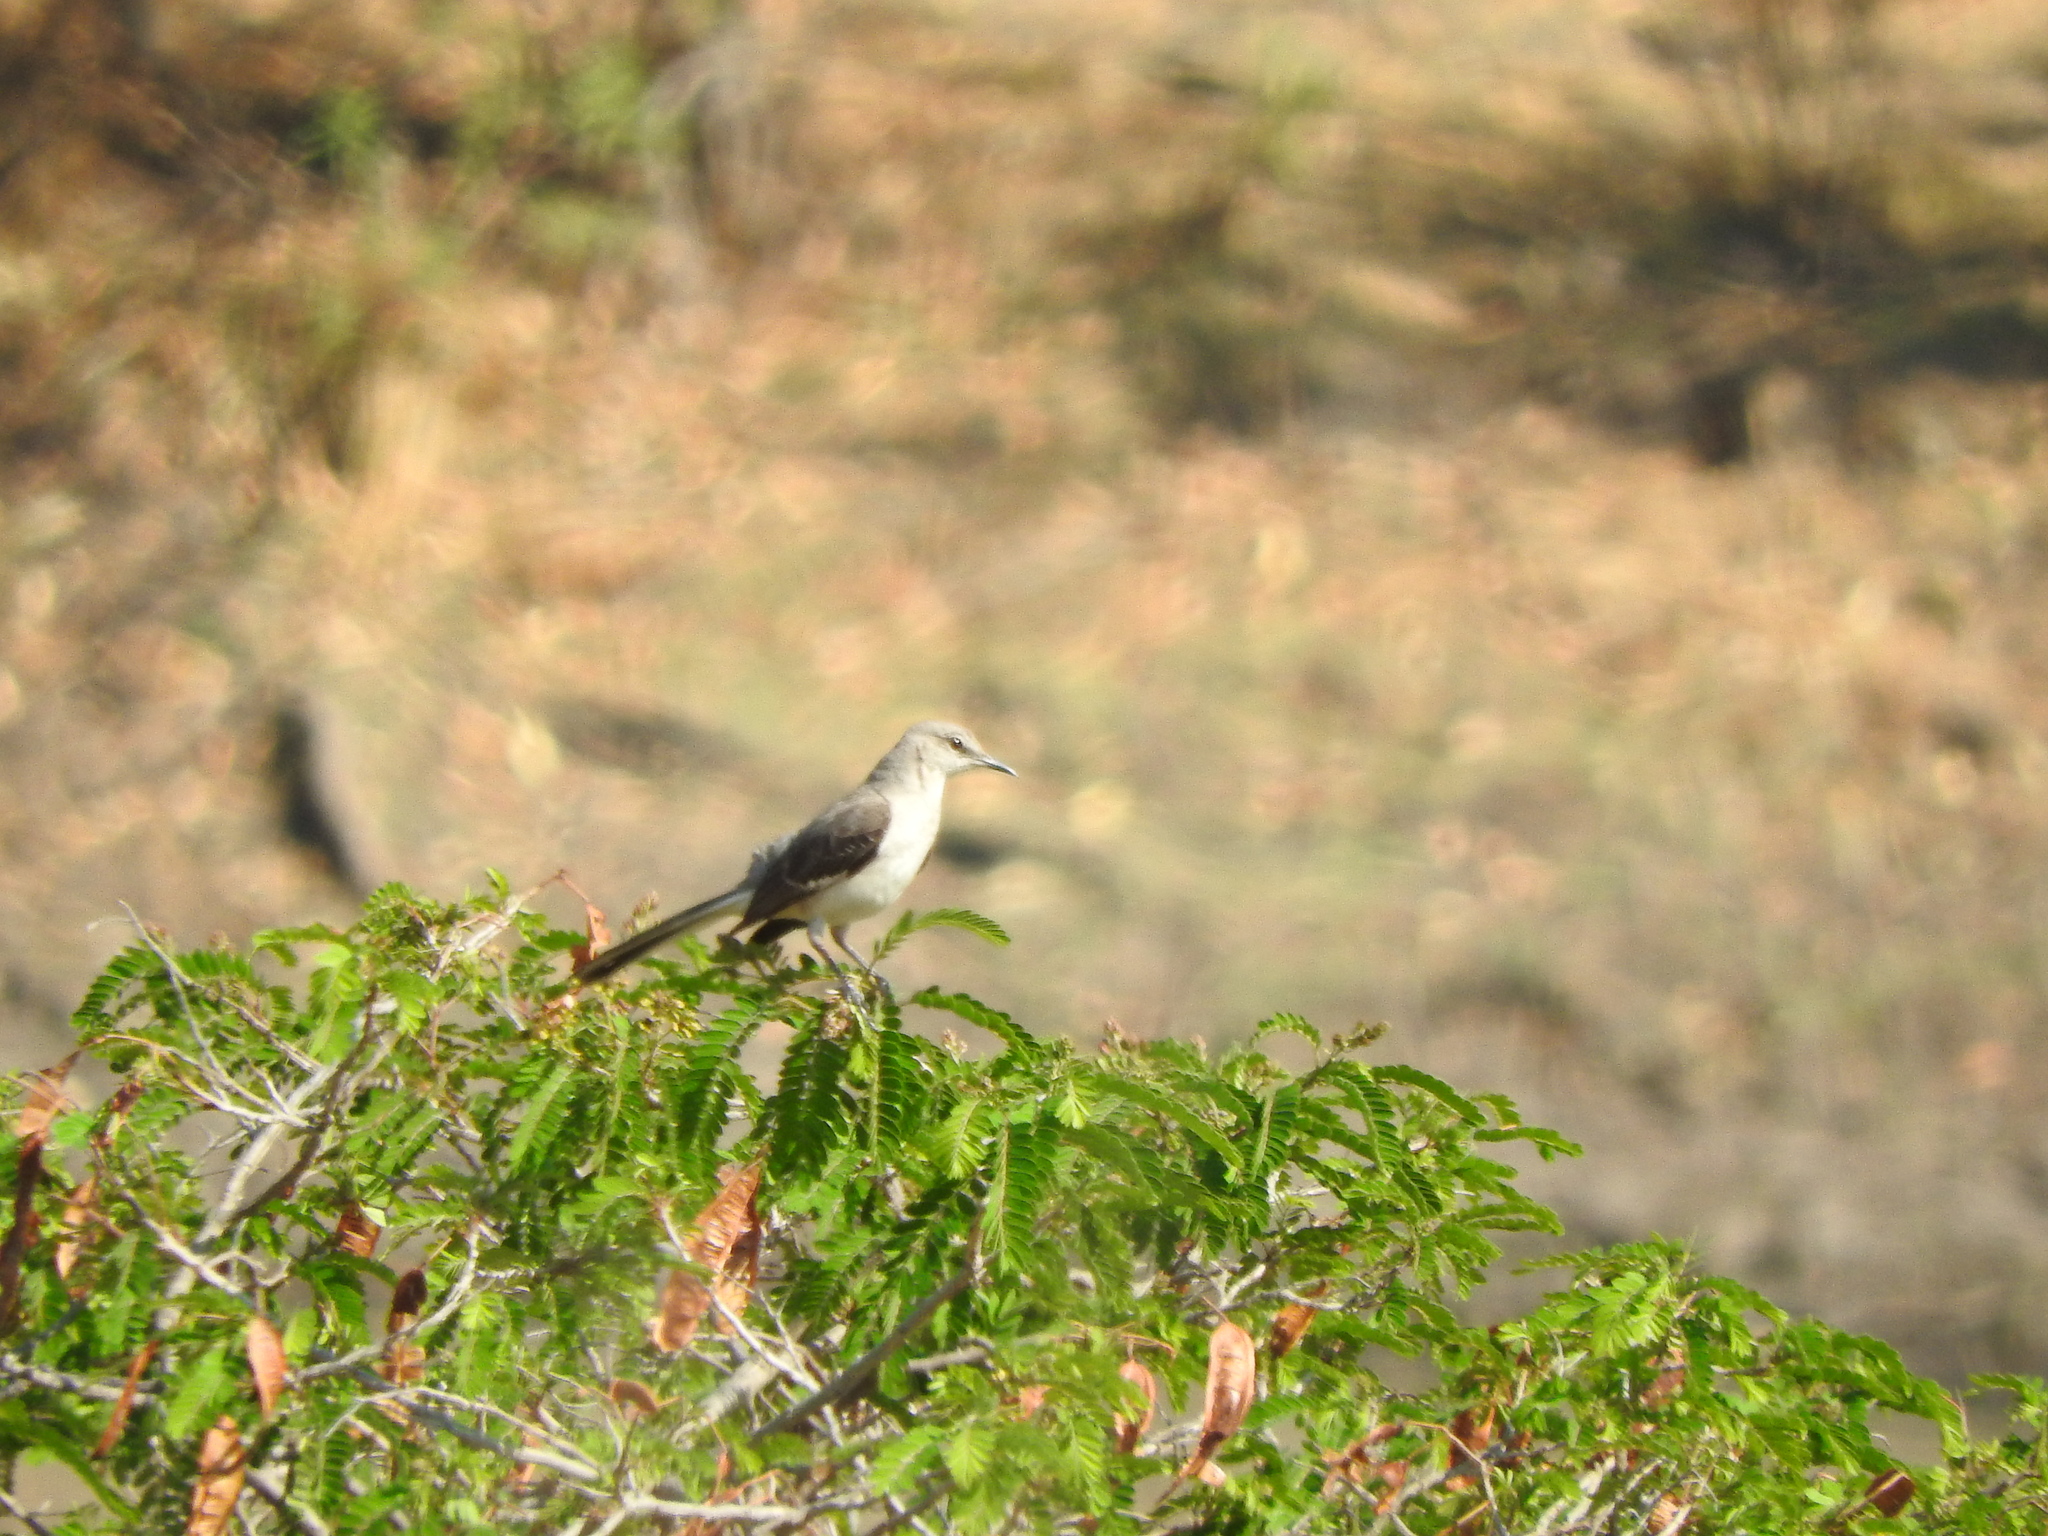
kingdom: Animalia
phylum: Chordata
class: Aves
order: Passeriformes
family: Mimidae
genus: Mimus
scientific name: Mimus polyglottos
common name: Northern mockingbird
